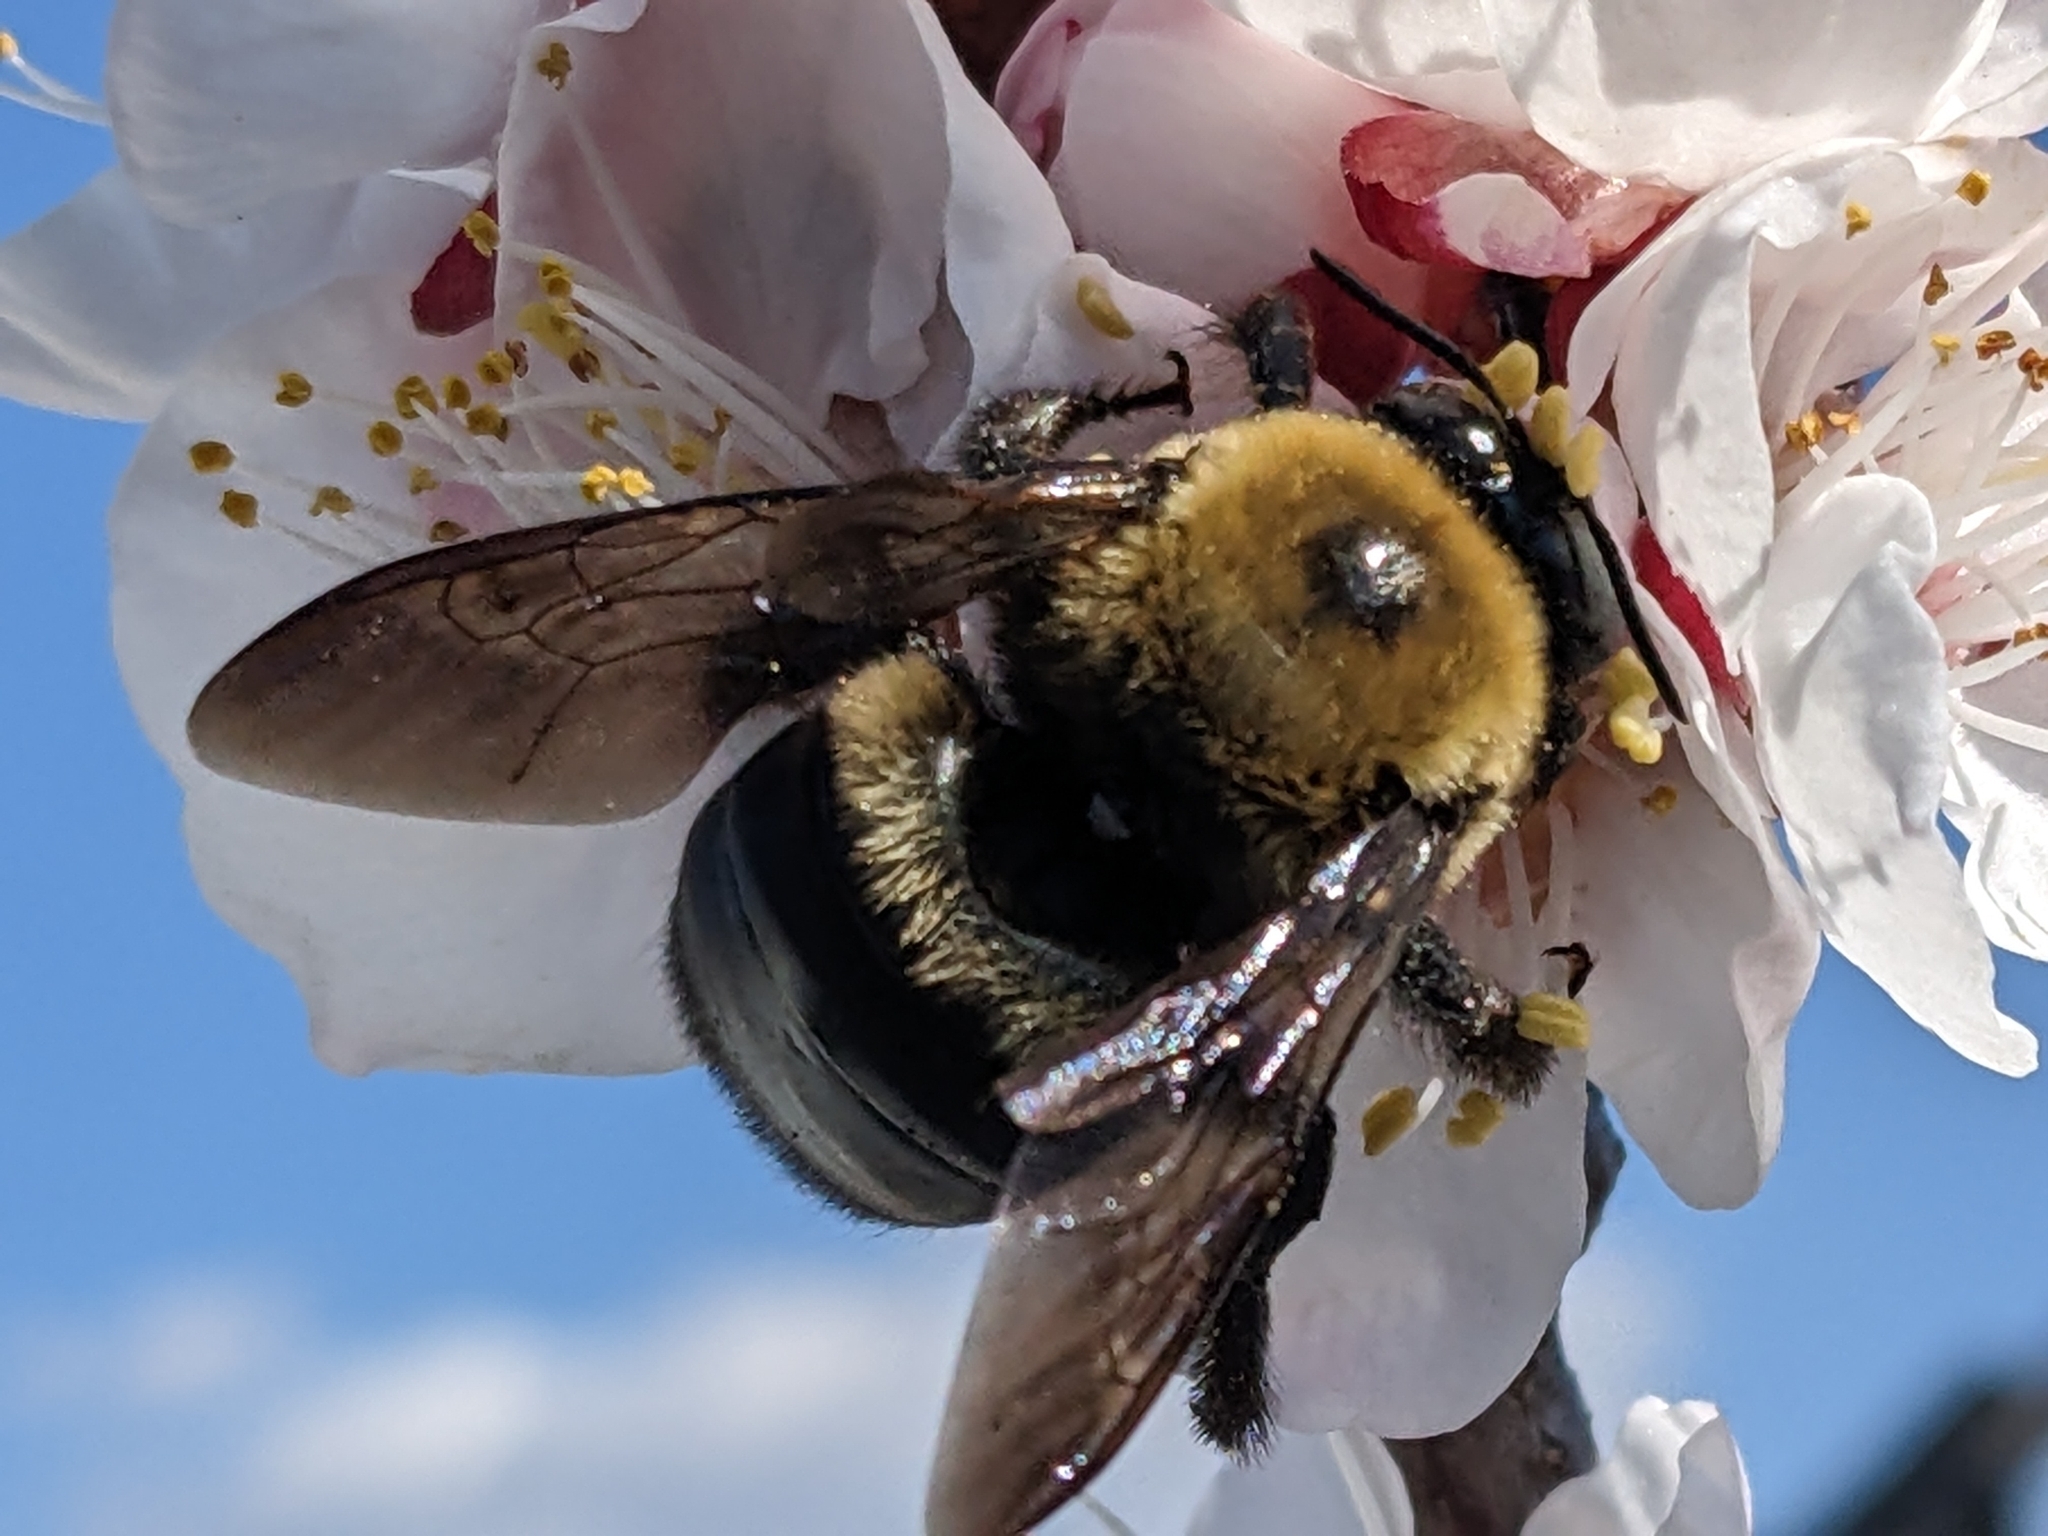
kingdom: Animalia
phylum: Arthropoda
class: Insecta
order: Hymenoptera
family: Apidae
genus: Xylocopa
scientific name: Xylocopa virginica
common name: Carpenter bee
